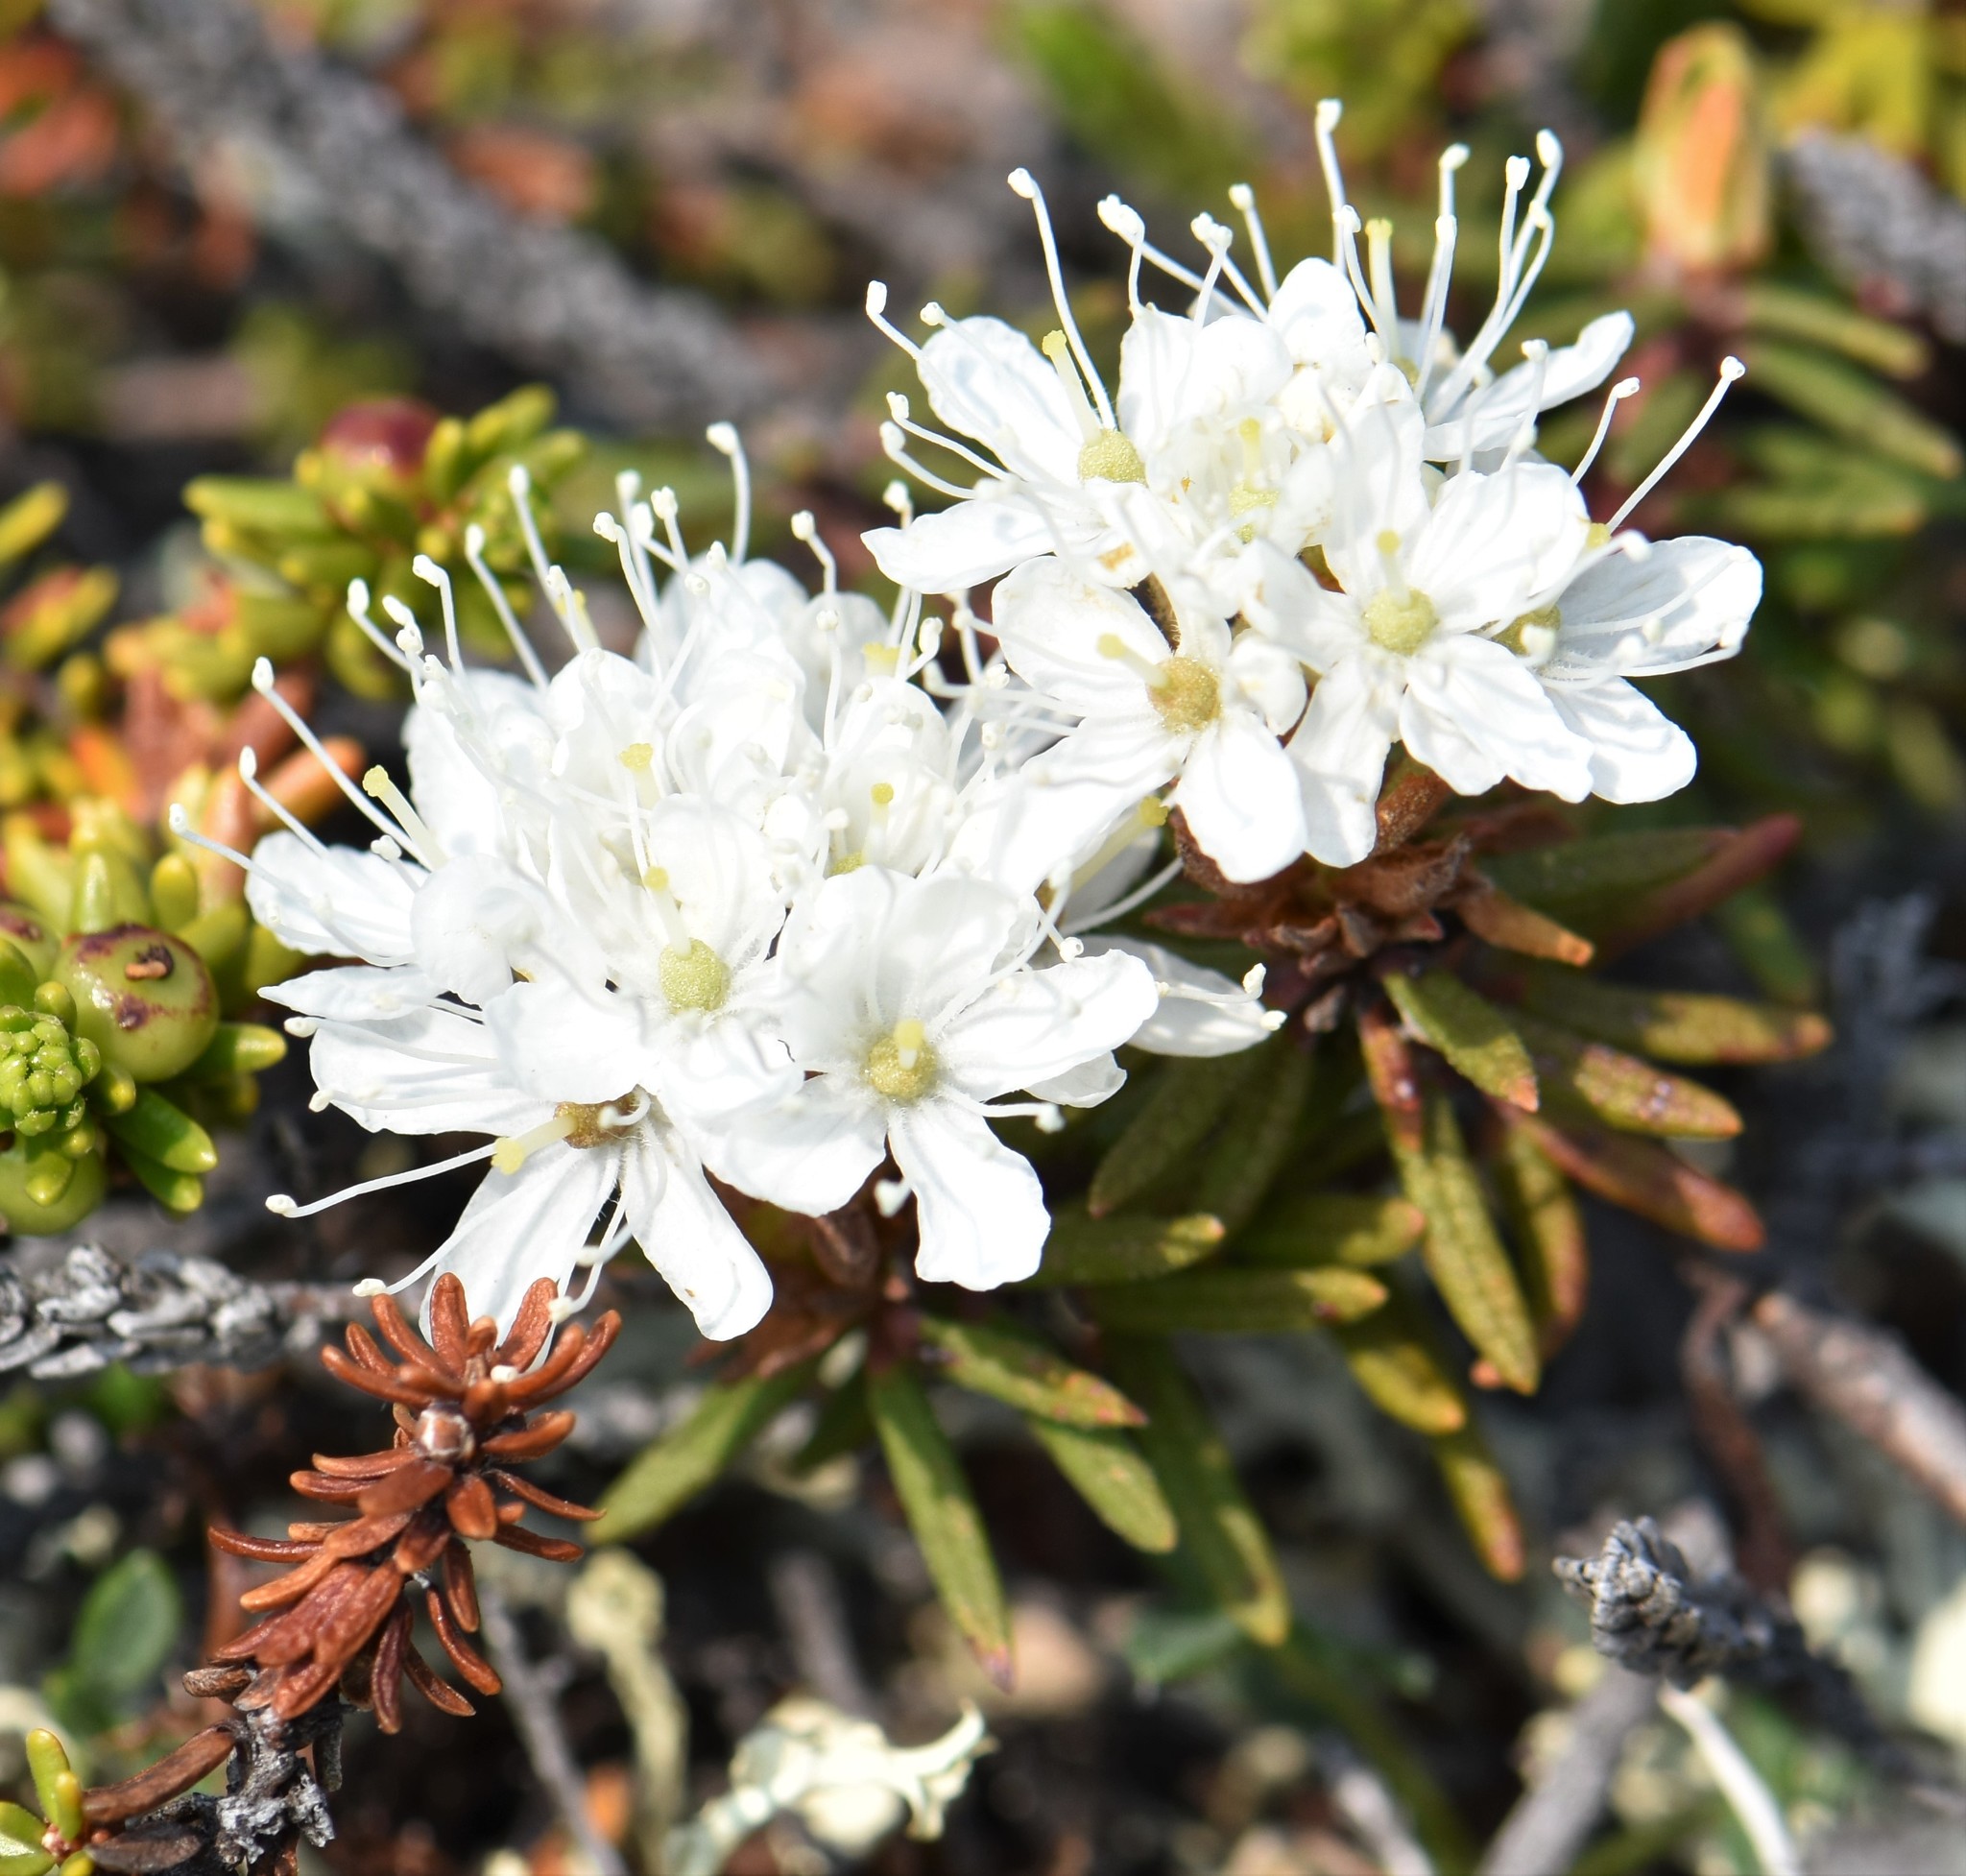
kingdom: Plantae
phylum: Tracheophyta
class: Magnoliopsida
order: Ericales
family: Ericaceae
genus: Rhododendron
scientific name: Rhododendron tomentosum
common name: Marsh labrador tea
